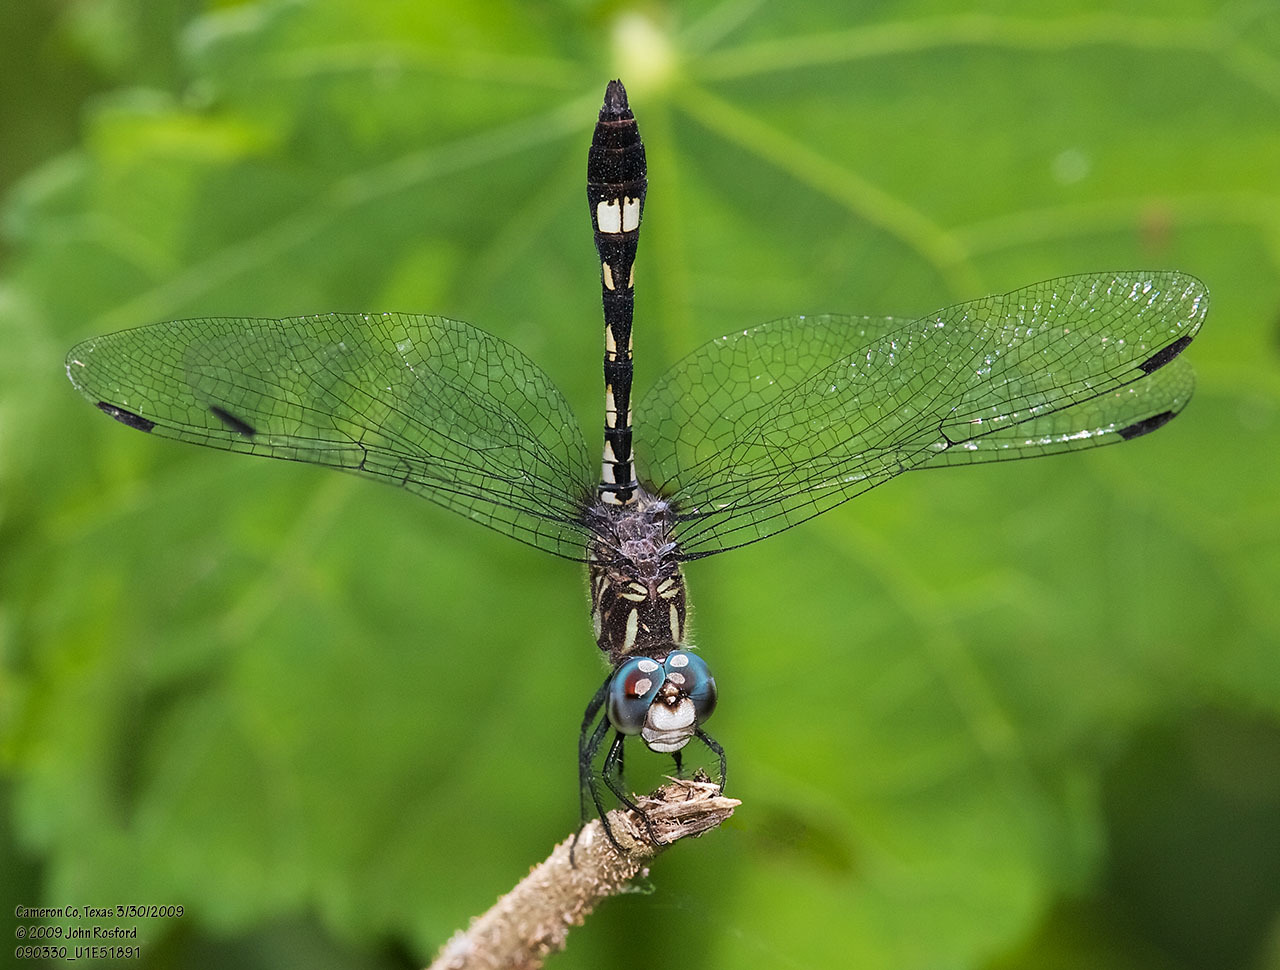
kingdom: Animalia
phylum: Arthropoda
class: Insecta
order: Odonata
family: Libellulidae
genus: Micrathyria
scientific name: Micrathyria hagenii
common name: Thornbush dasher
